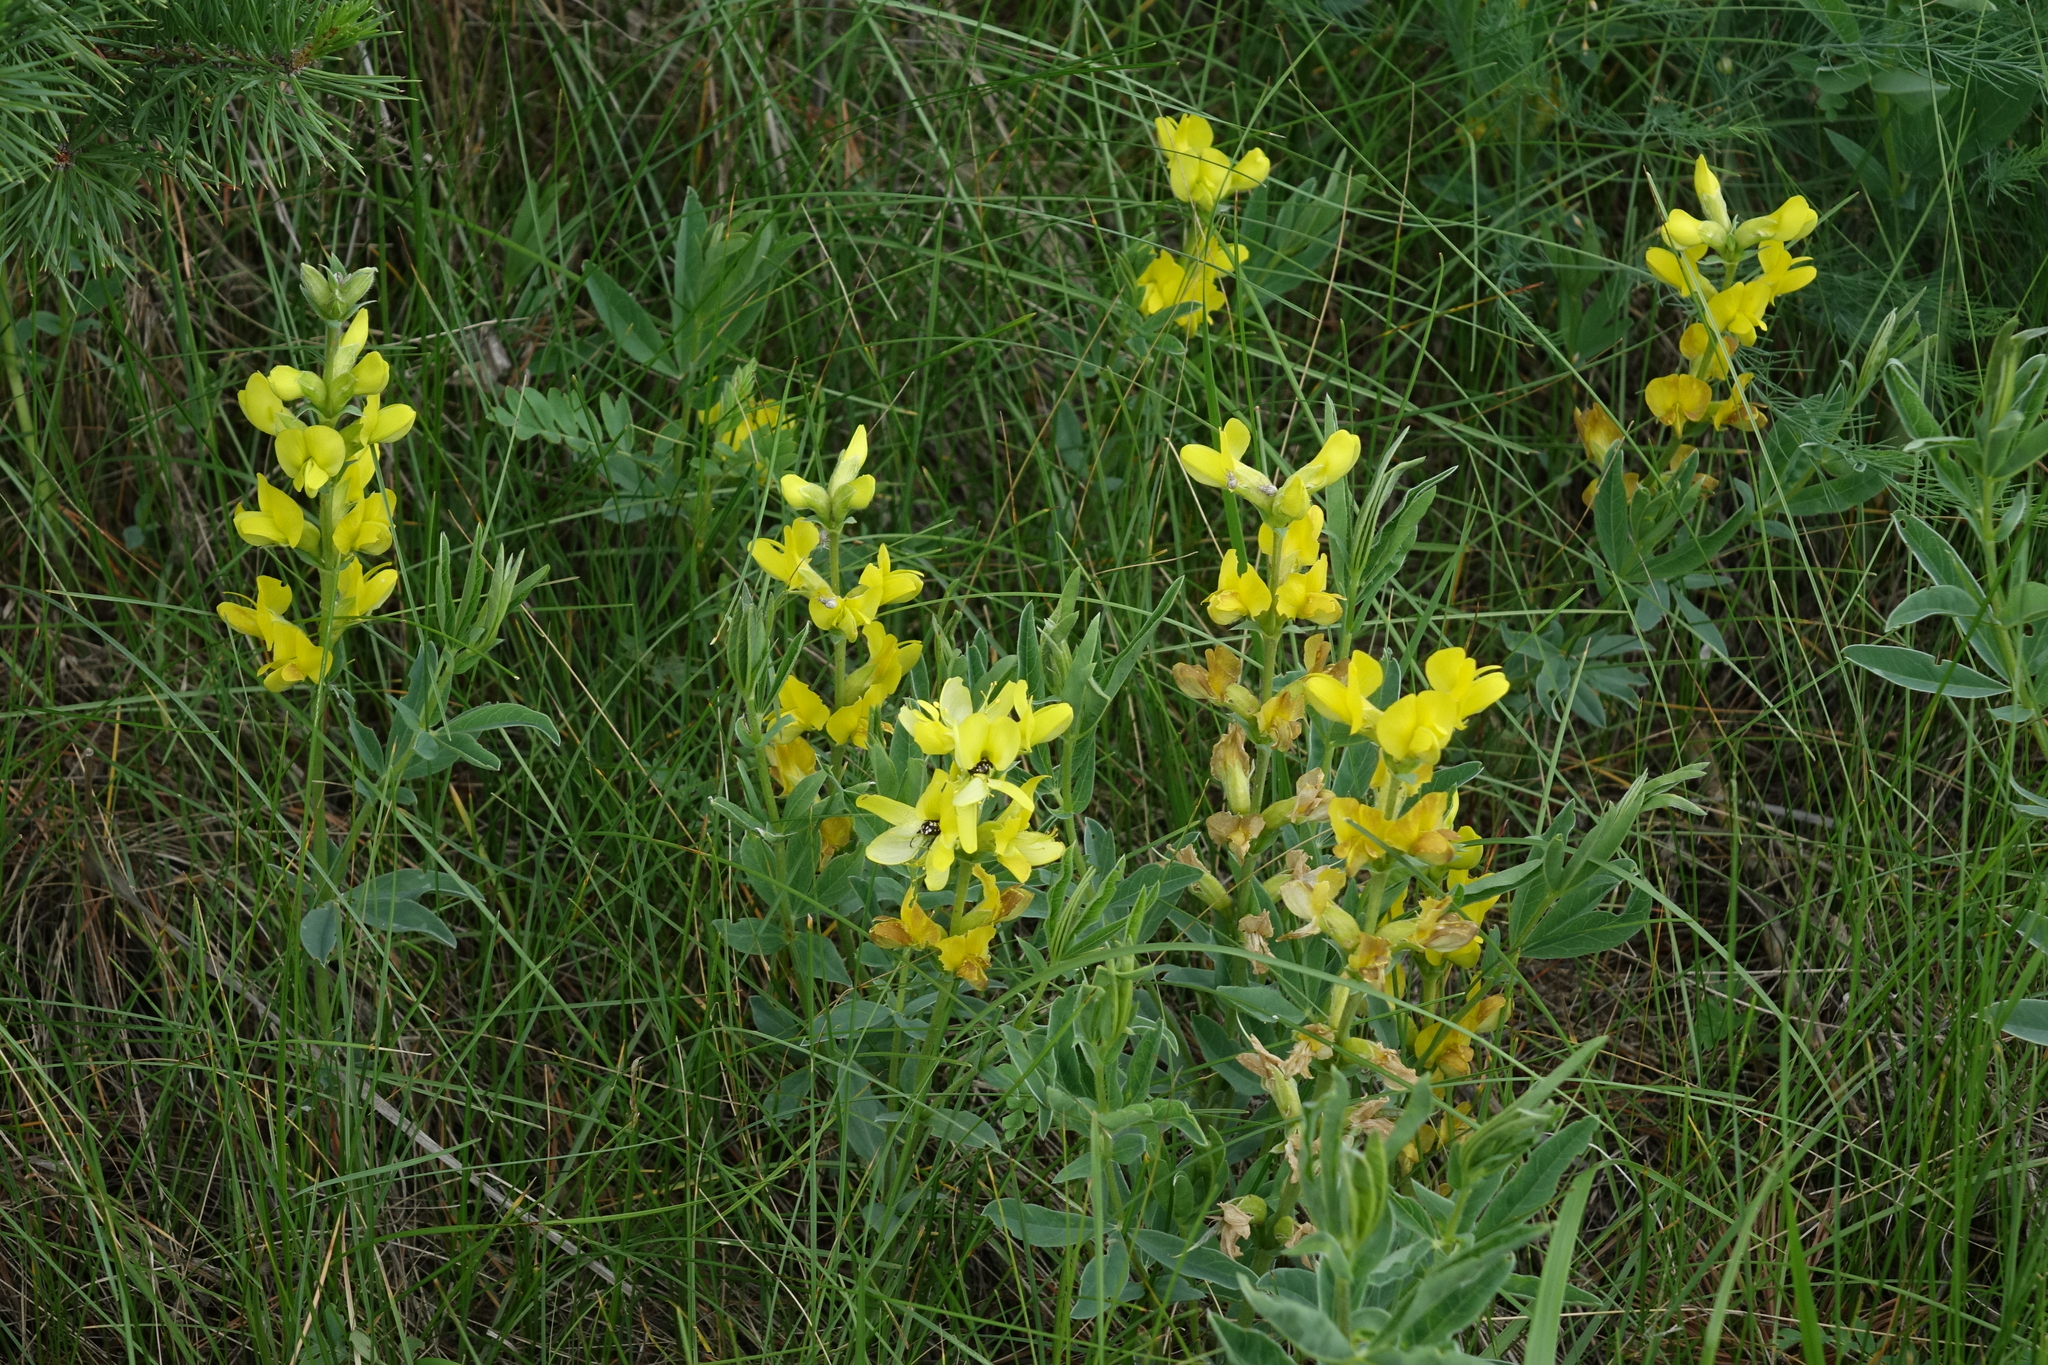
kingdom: Plantae
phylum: Tracheophyta
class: Magnoliopsida
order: Fabales
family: Fabaceae
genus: Thermopsis
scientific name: Thermopsis lanceolata
